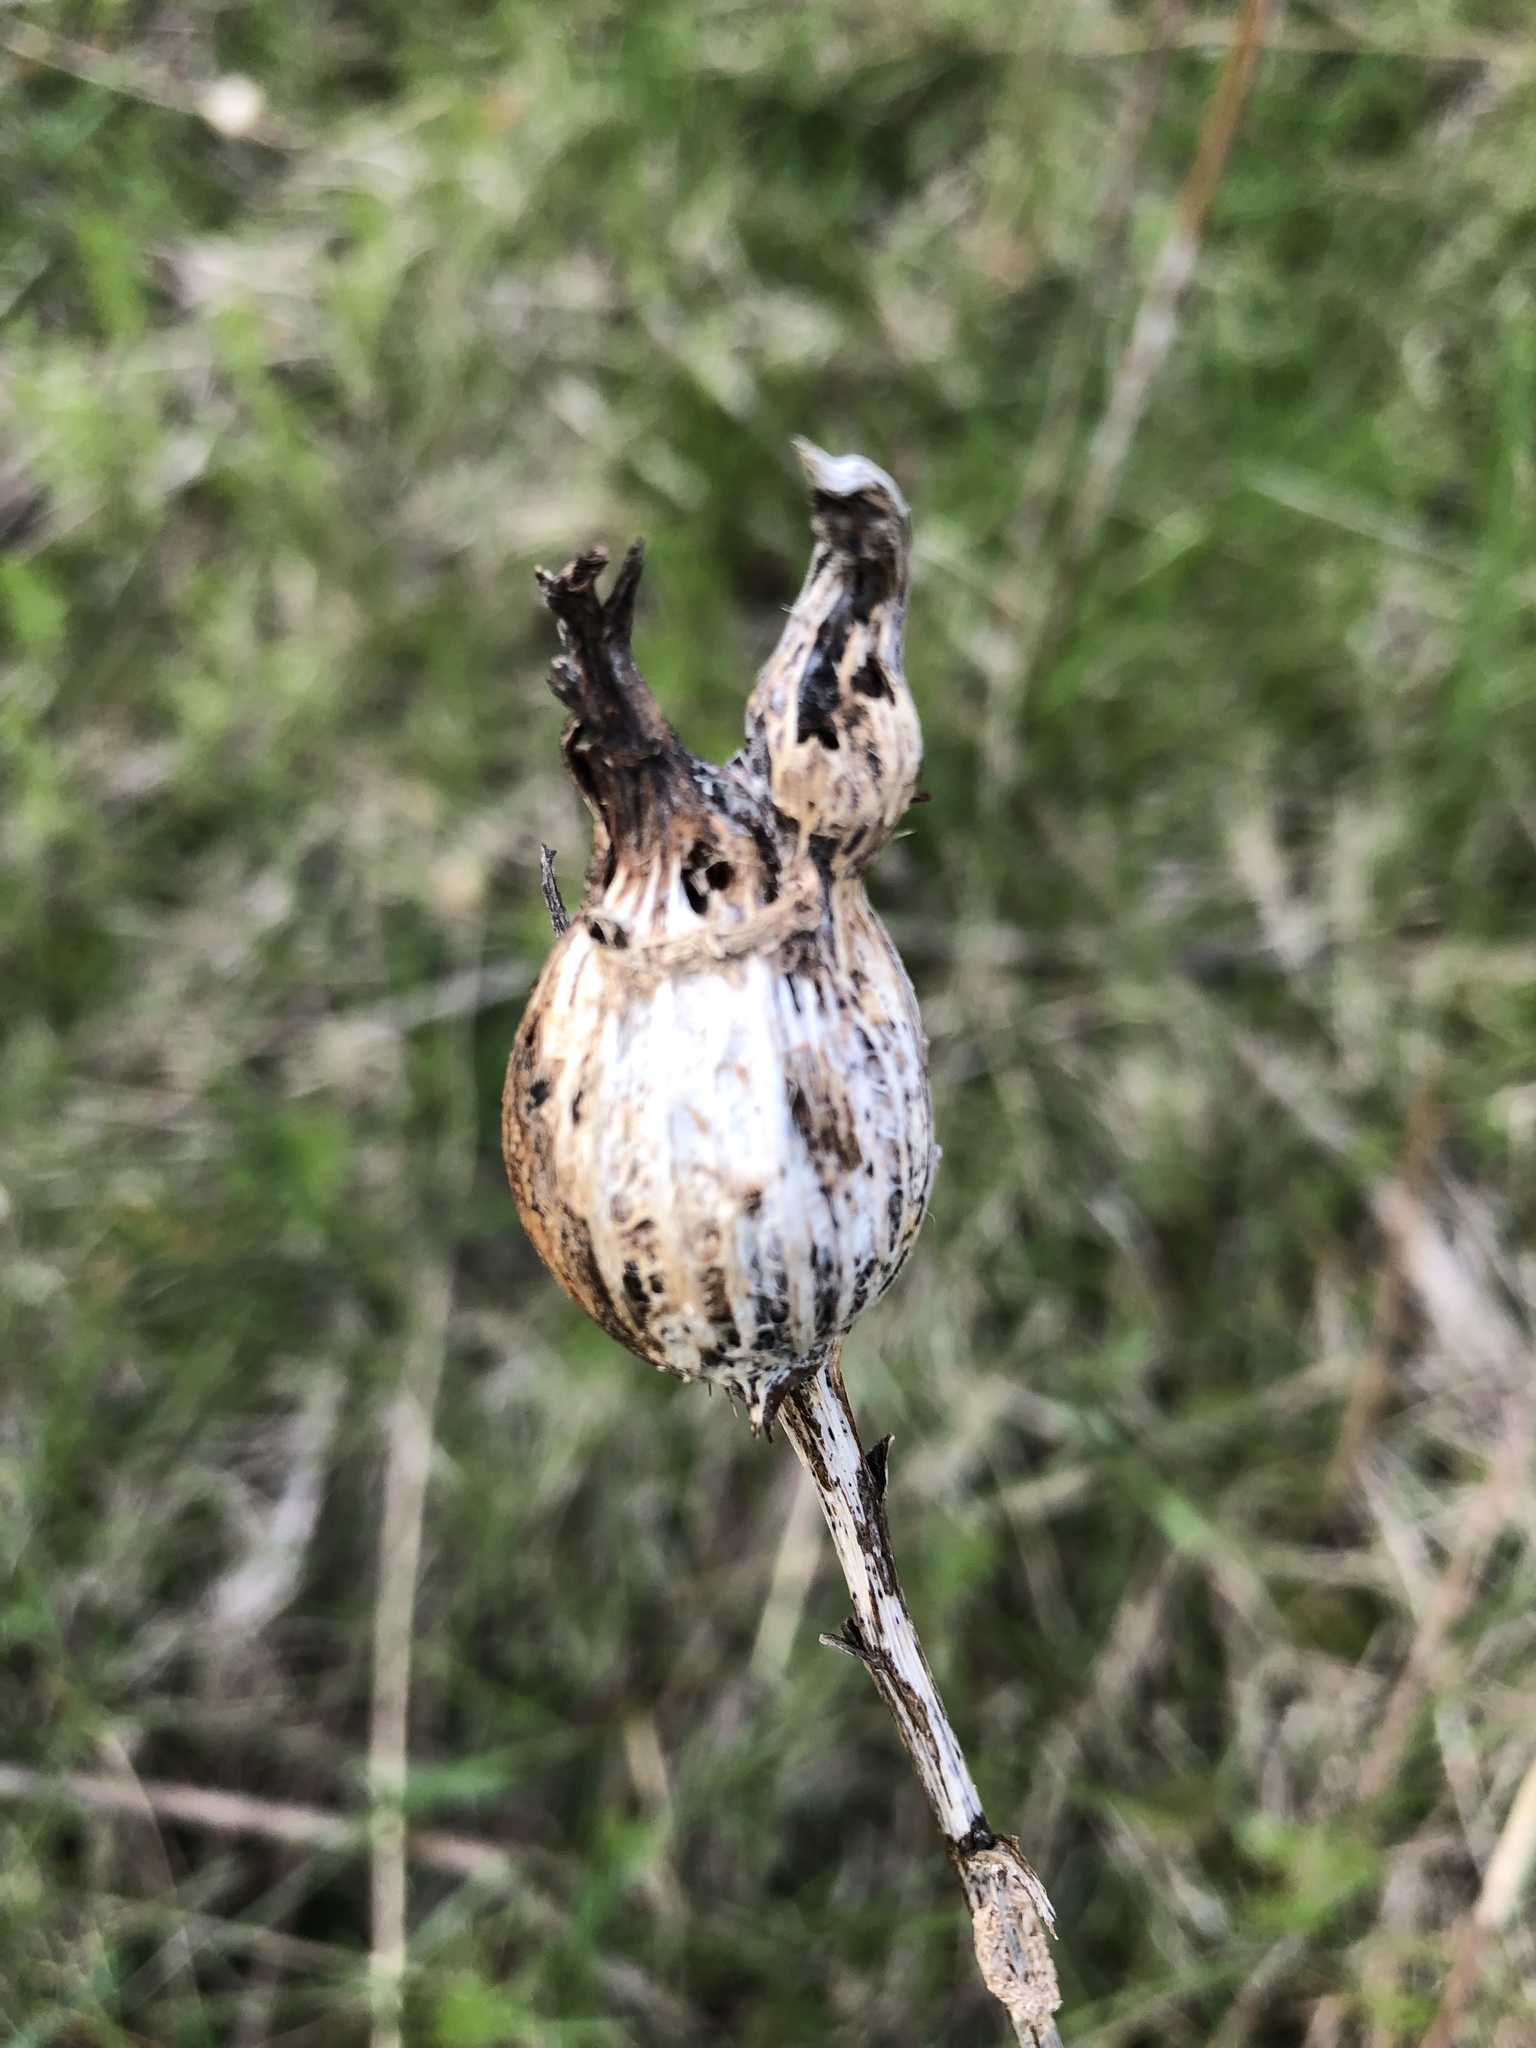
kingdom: Animalia
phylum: Arthropoda
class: Insecta
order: Diptera
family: Tephritidae
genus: Eurosta
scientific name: Eurosta solidaginis
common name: Goldenrod gall fly
